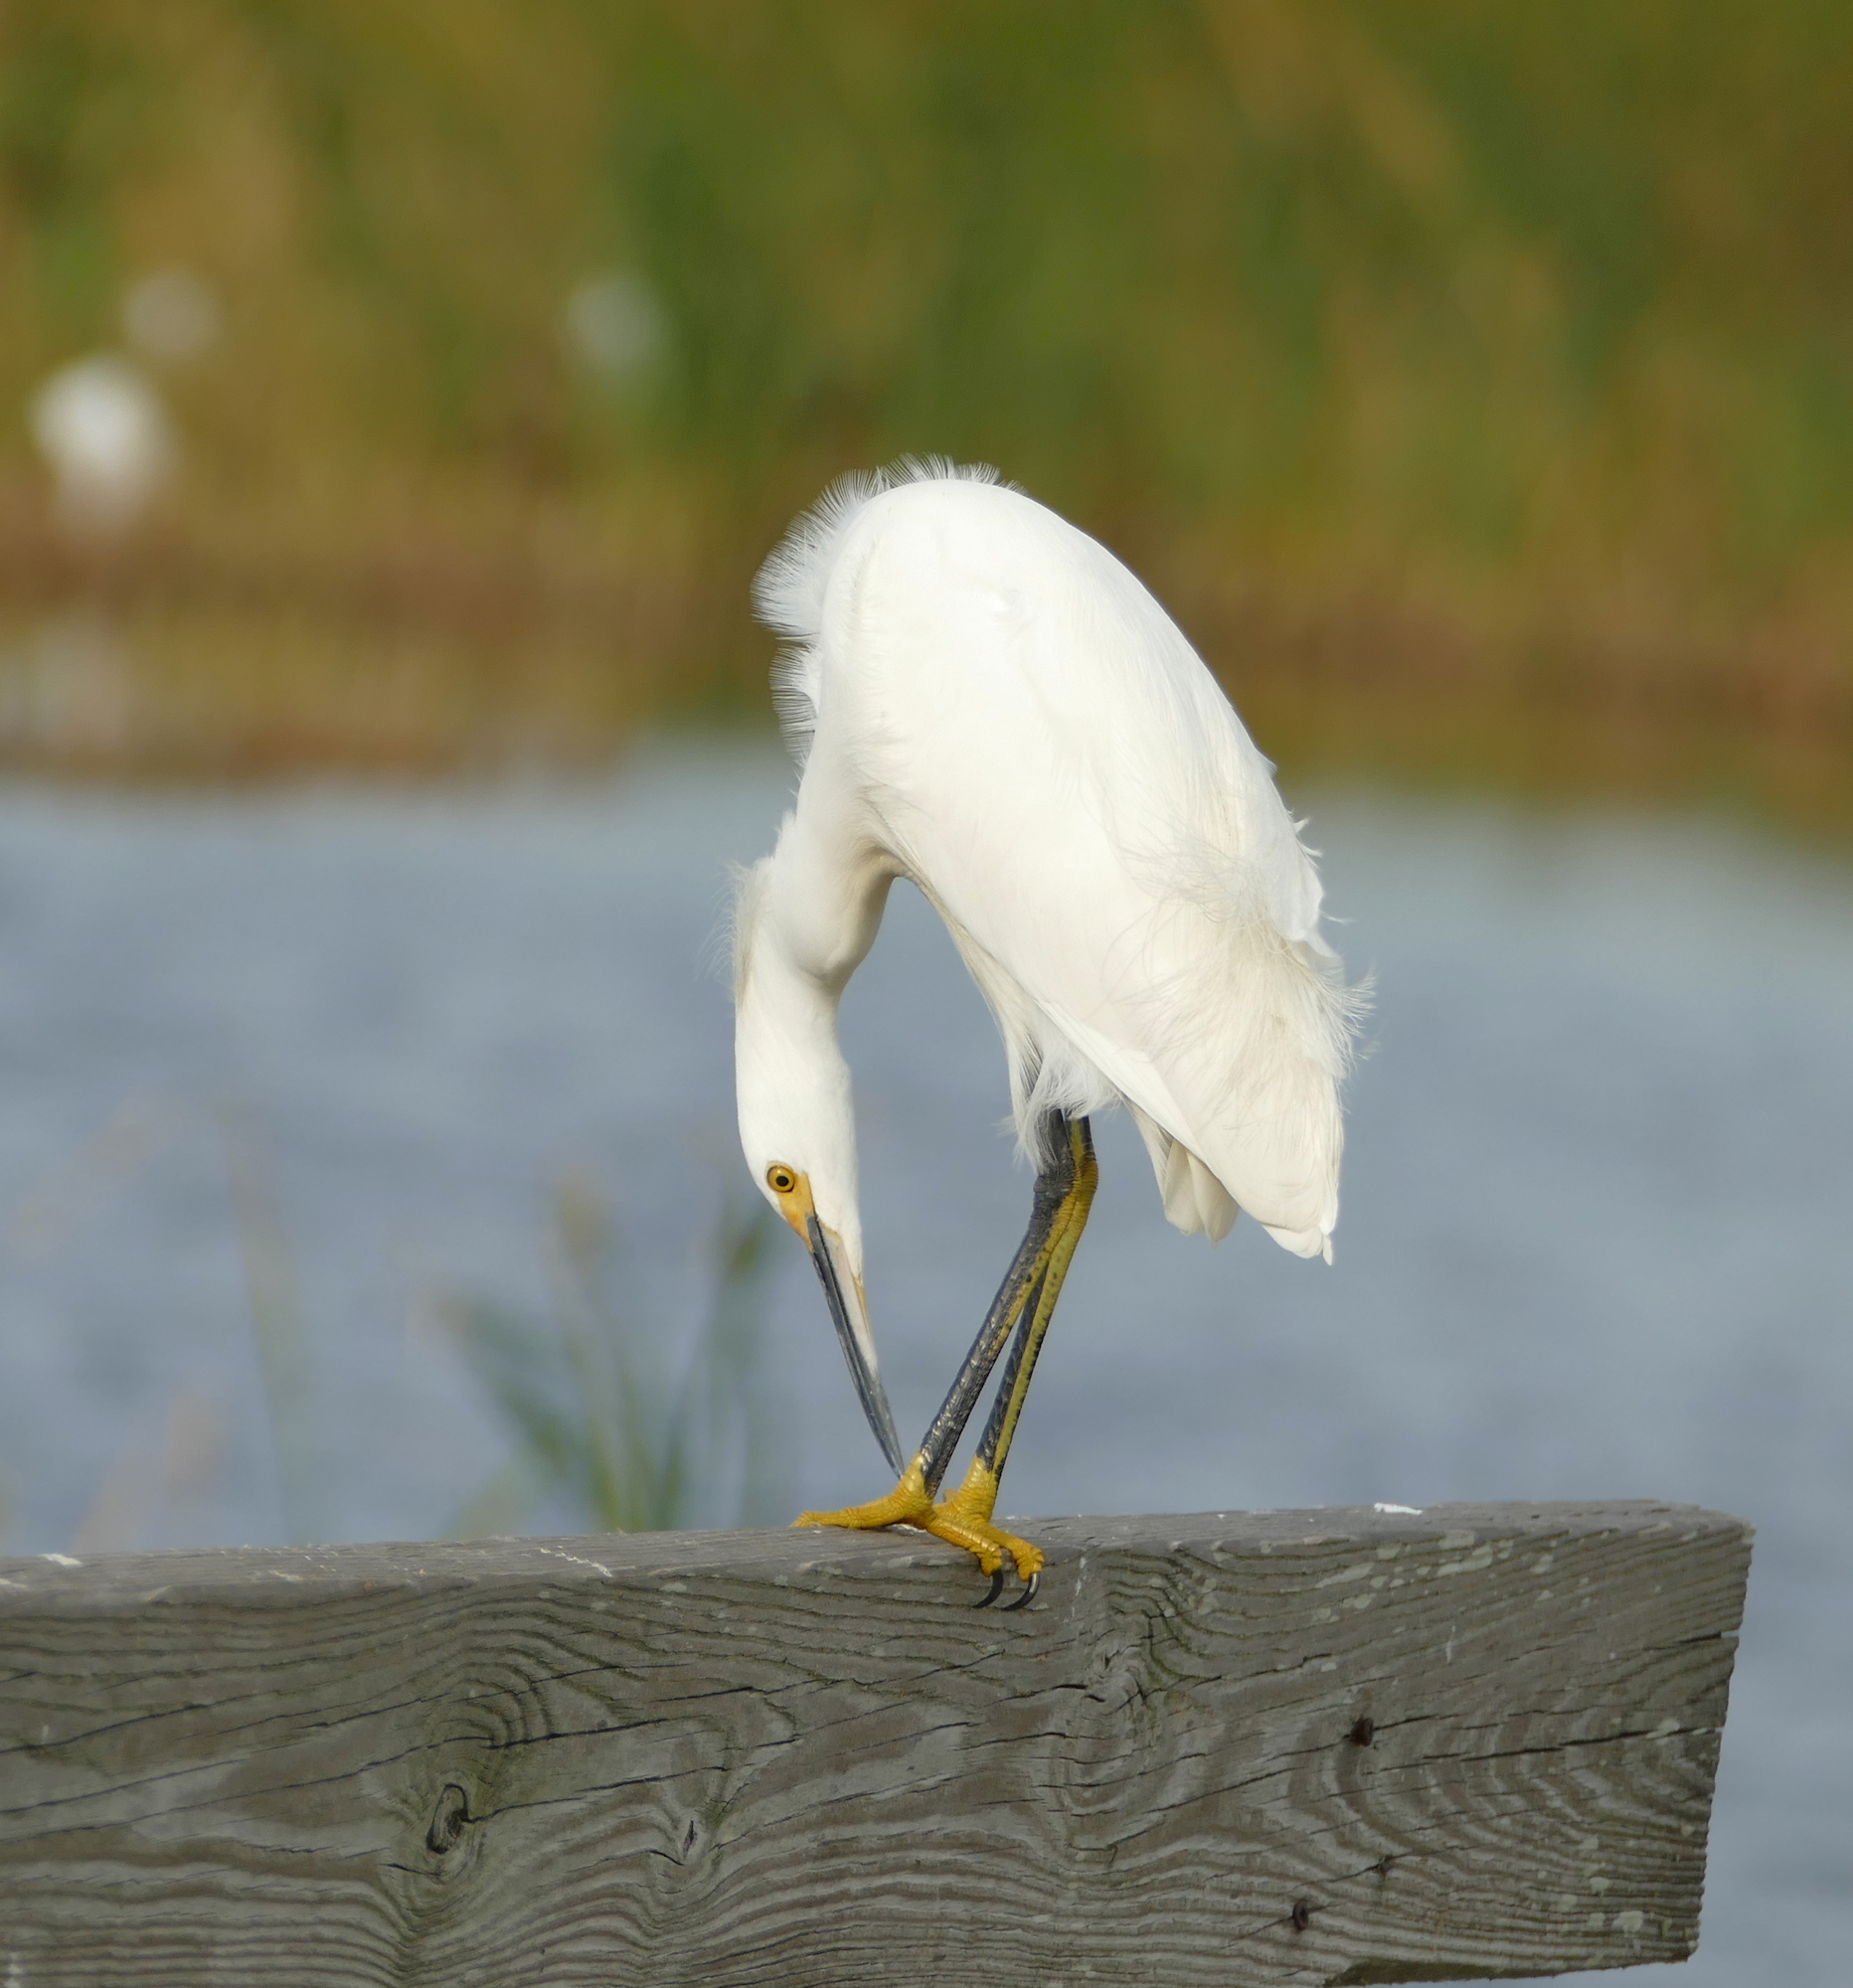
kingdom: Animalia
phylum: Chordata
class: Aves
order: Pelecaniformes
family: Ardeidae
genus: Egretta
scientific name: Egretta thula
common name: Snowy egret
